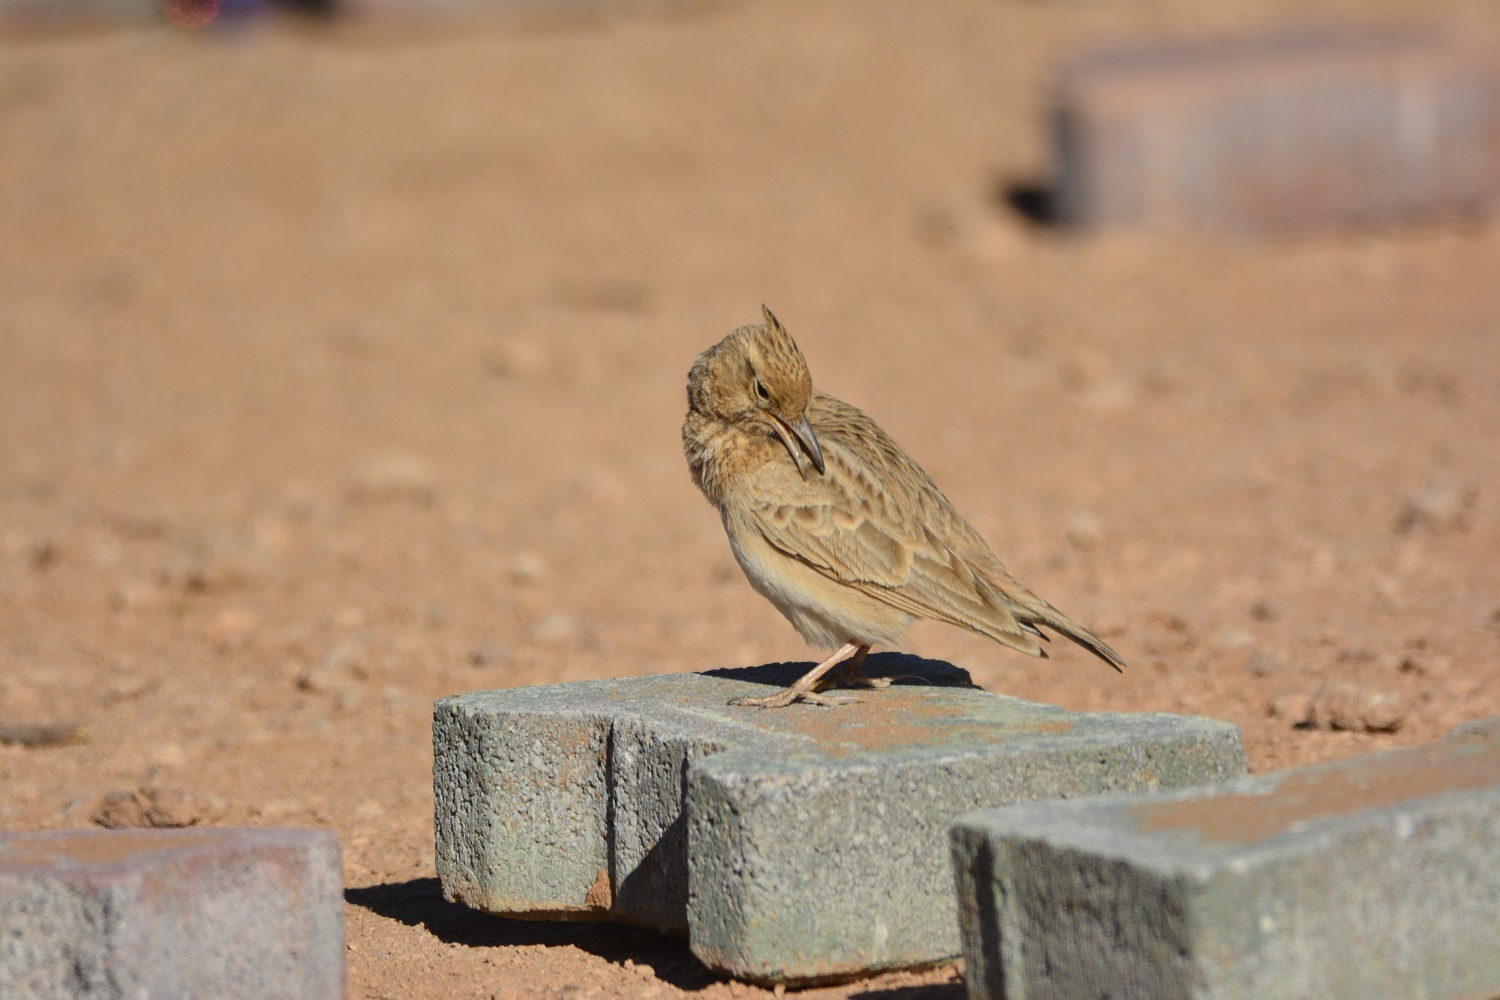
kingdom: Animalia
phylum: Chordata
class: Aves
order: Passeriformes
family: Alaudidae
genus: Galerida
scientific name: Galerida cristata
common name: Crested lark
